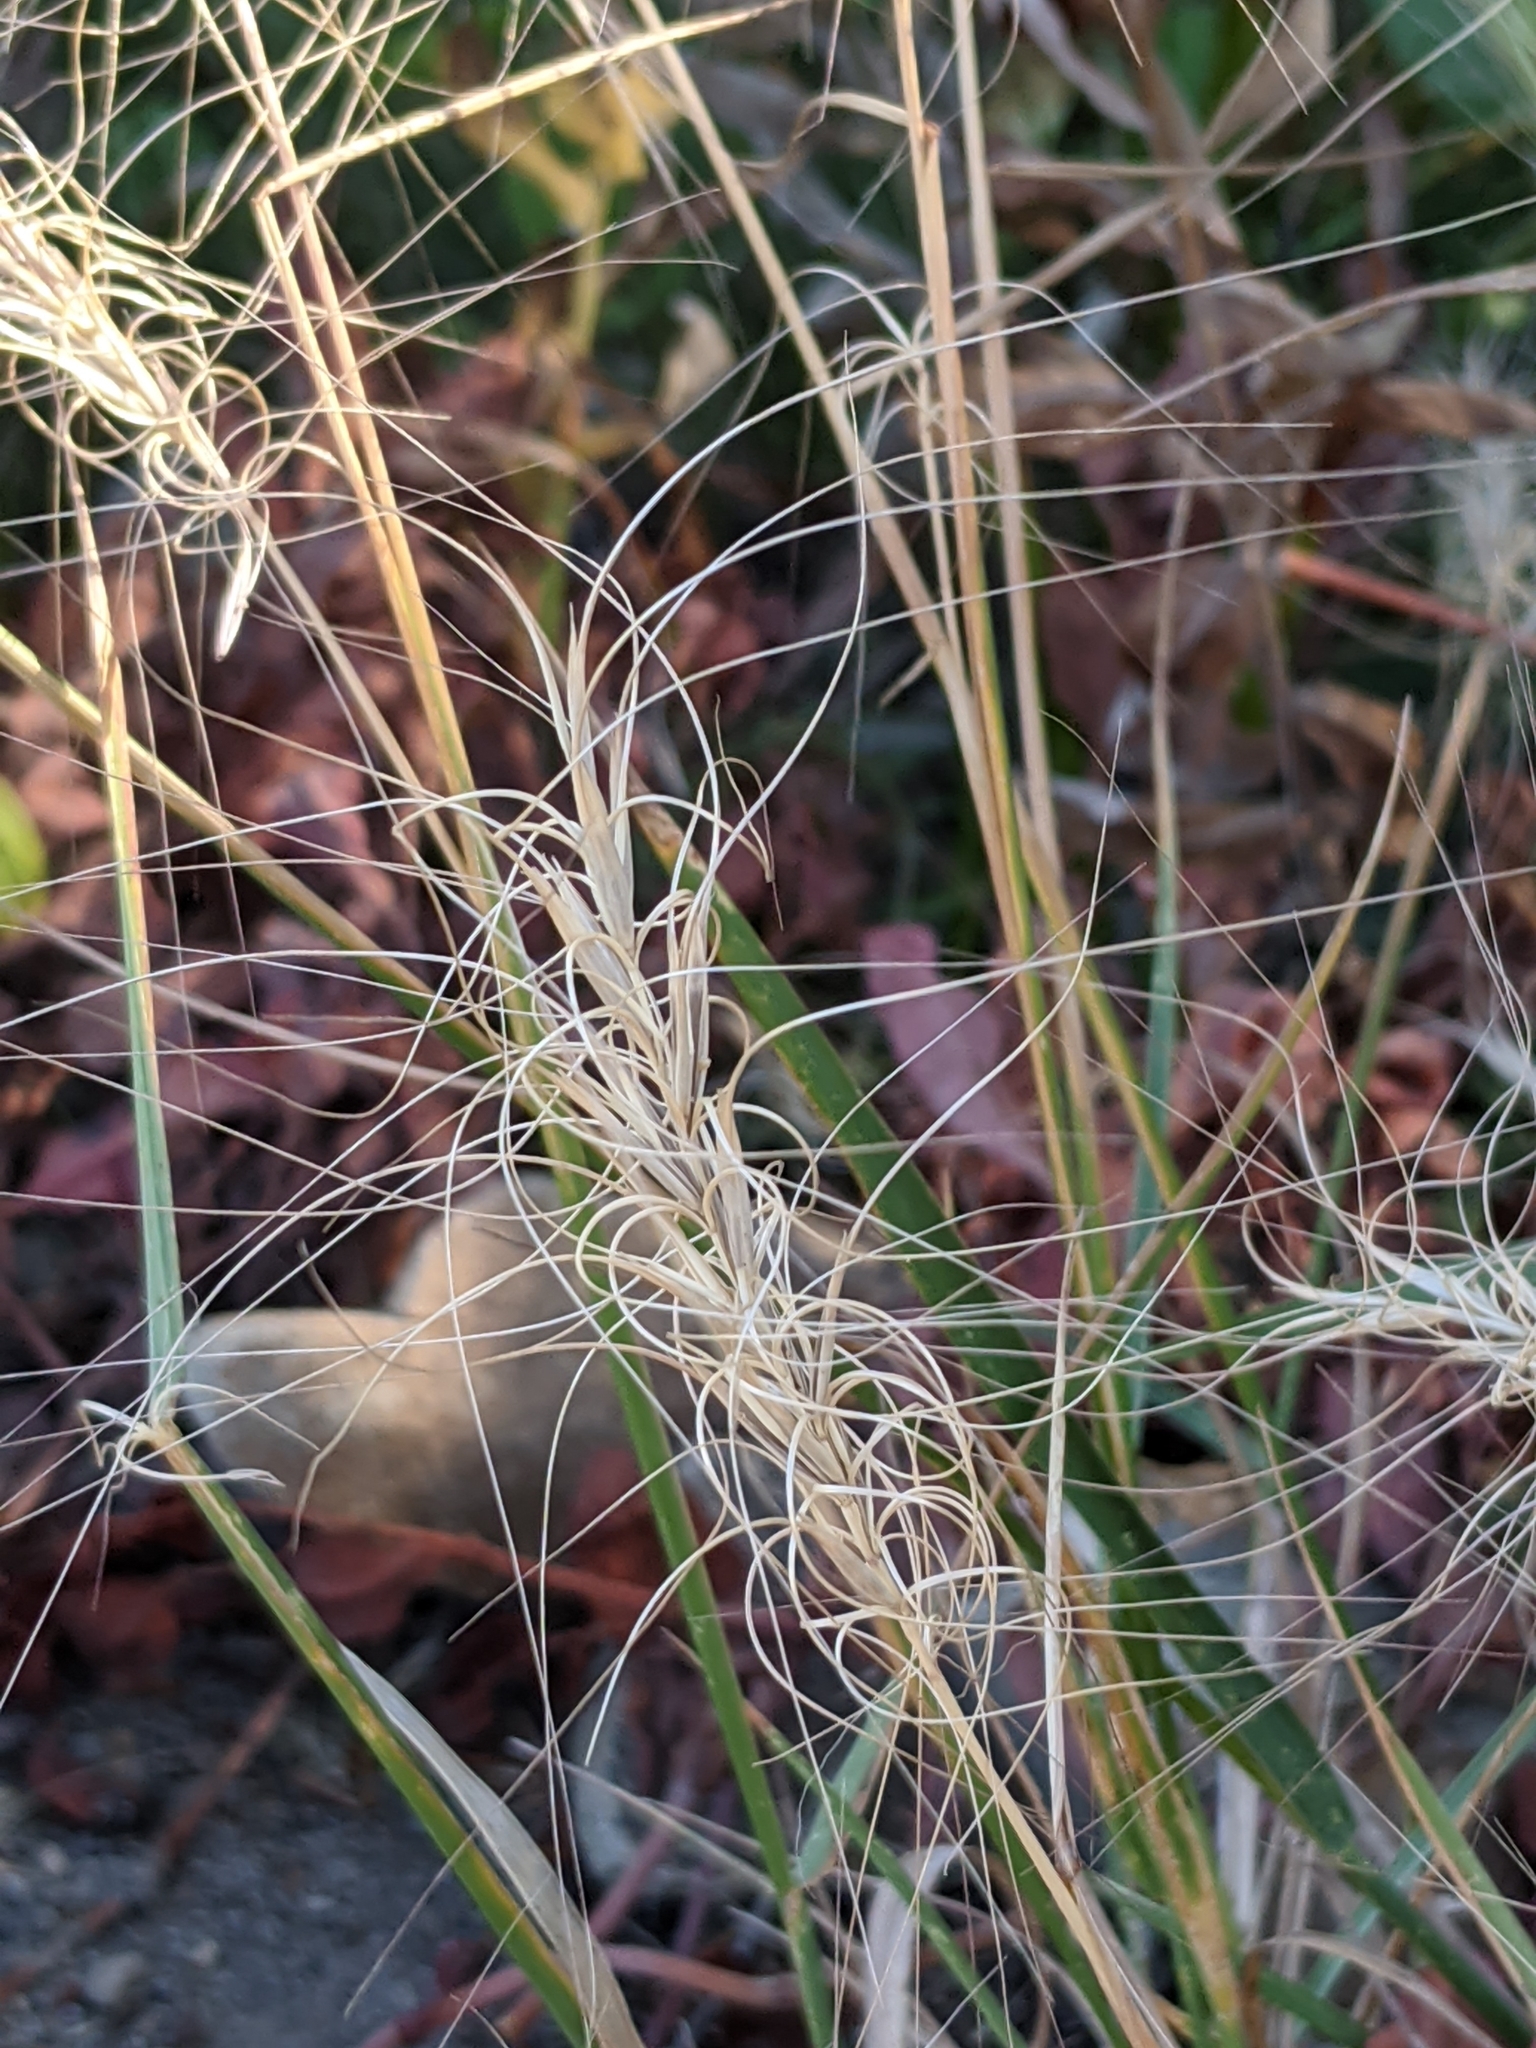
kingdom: Plantae
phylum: Tracheophyta
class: Liliopsida
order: Poales
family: Poaceae
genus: Elymus
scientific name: Elymus elymoides
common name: Bottlebrush squirreltail
